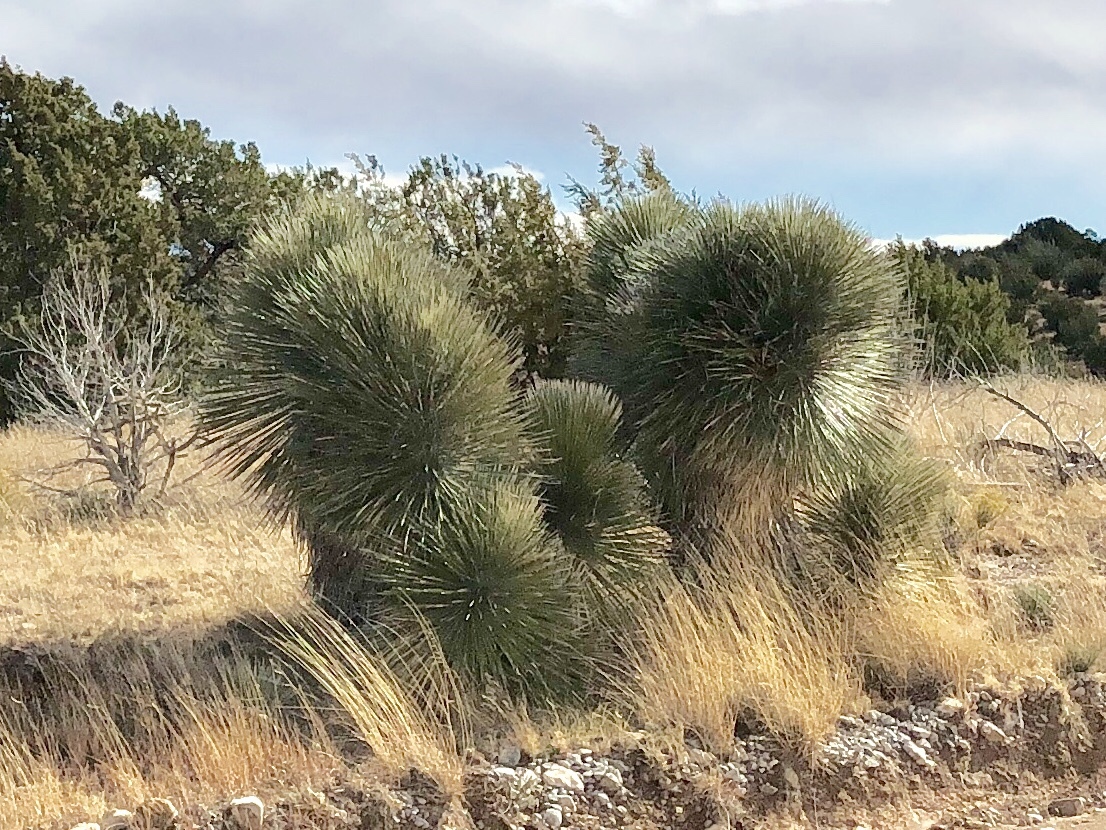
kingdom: Plantae
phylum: Tracheophyta
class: Liliopsida
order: Asparagales
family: Asparagaceae
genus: Yucca
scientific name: Yucca elata
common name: Palmella
